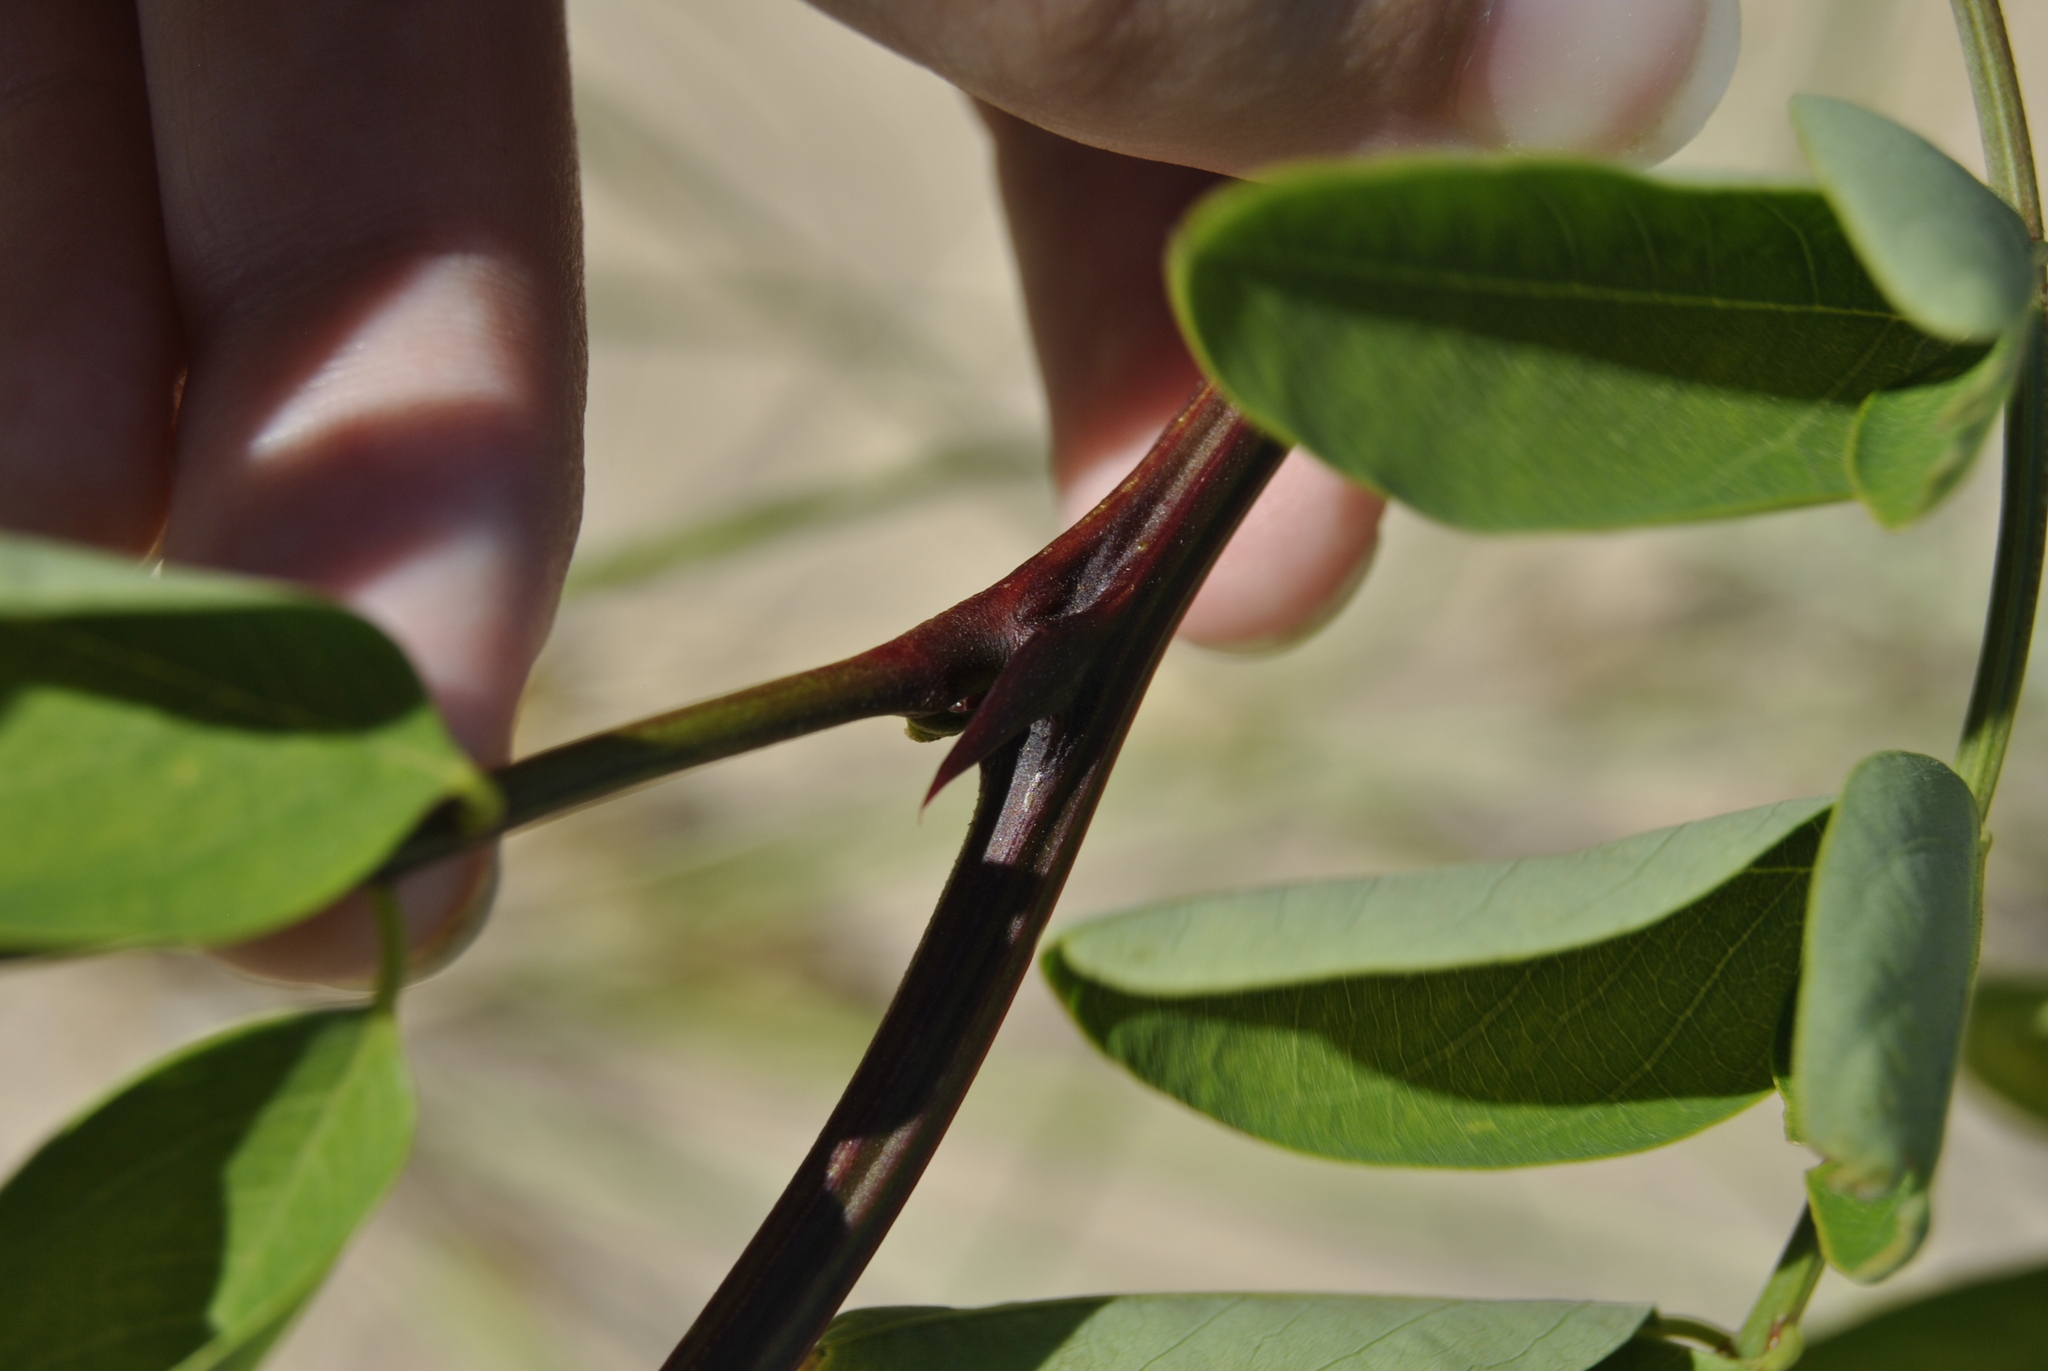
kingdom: Plantae
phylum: Tracheophyta
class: Magnoliopsida
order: Fabales
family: Fabaceae
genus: Robinia
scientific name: Robinia pseudoacacia
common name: Black locust
